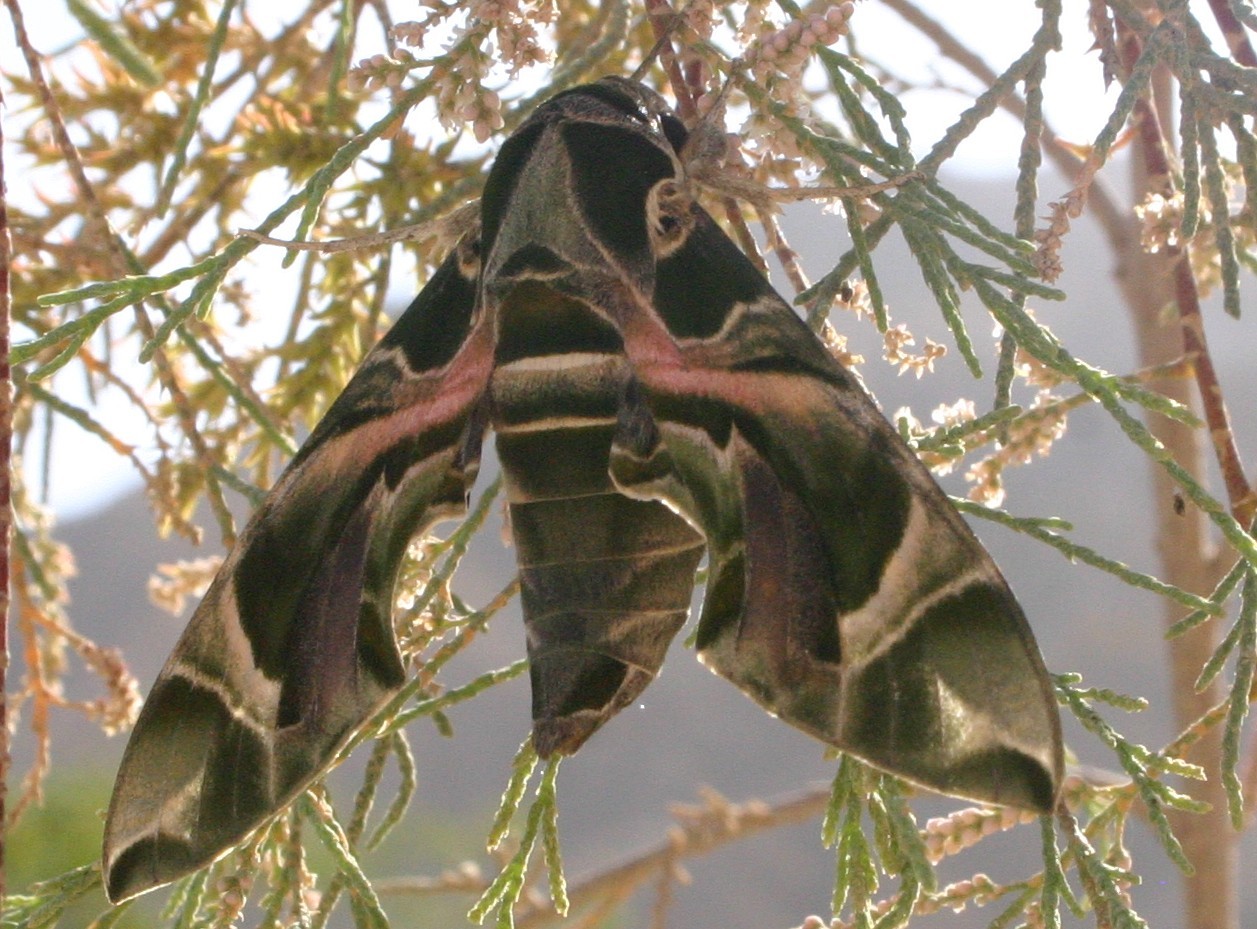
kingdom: Animalia
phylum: Arthropoda
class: Insecta
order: Lepidoptera
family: Sphingidae
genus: Daphnis
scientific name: Daphnis nerii
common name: Oleander hawk-moth
